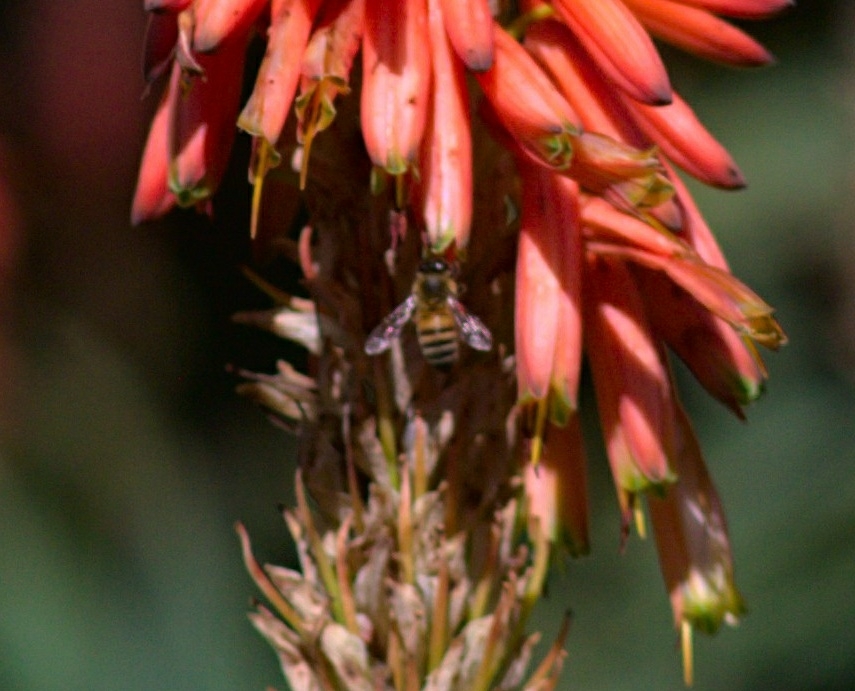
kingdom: Animalia
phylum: Arthropoda
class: Insecta
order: Hymenoptera
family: Apidae
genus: Apis
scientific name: Apis mellifera
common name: Honey bee
